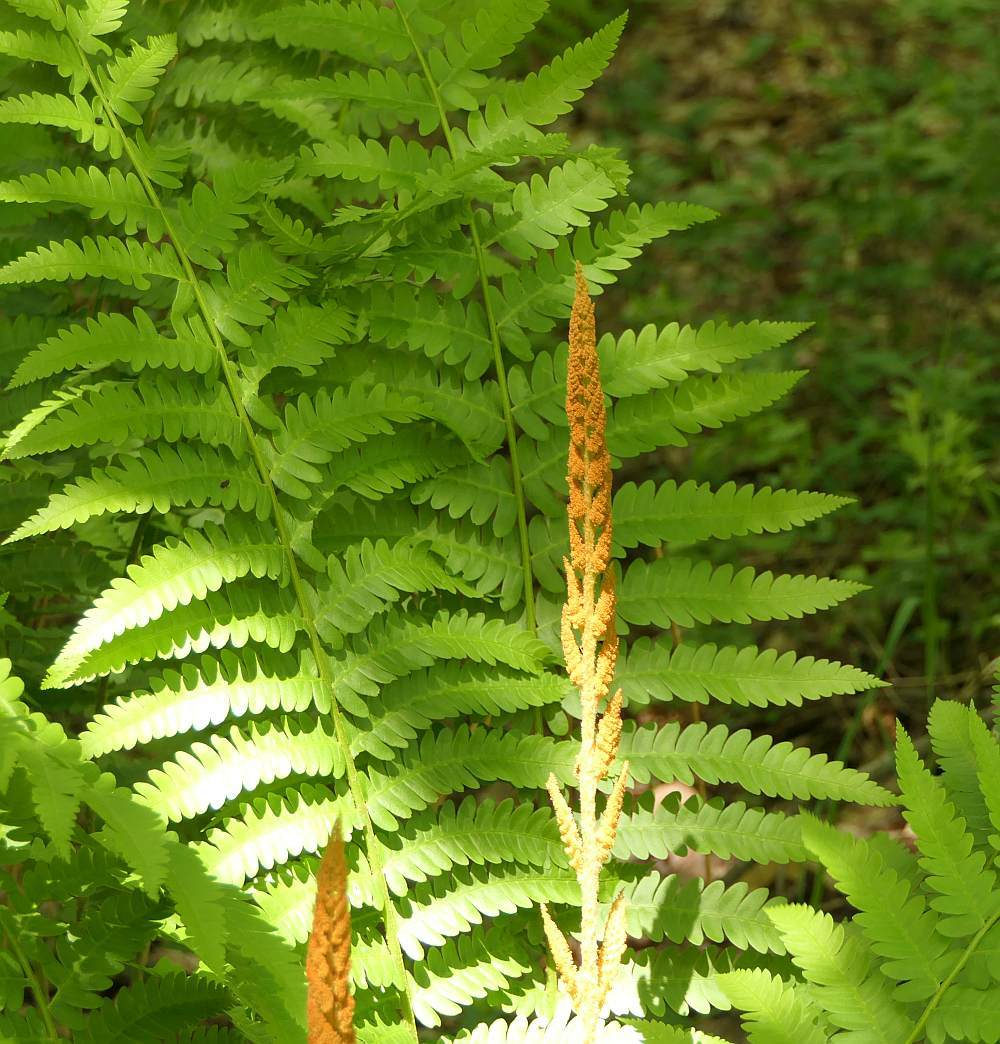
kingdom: Plantae
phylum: Tracheophyta
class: Polypodiopsida
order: Osmundales
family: Osmundaceae
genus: Osmundastrum
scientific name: Osmundastrum cinnamomeum
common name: Cinnamon fern
